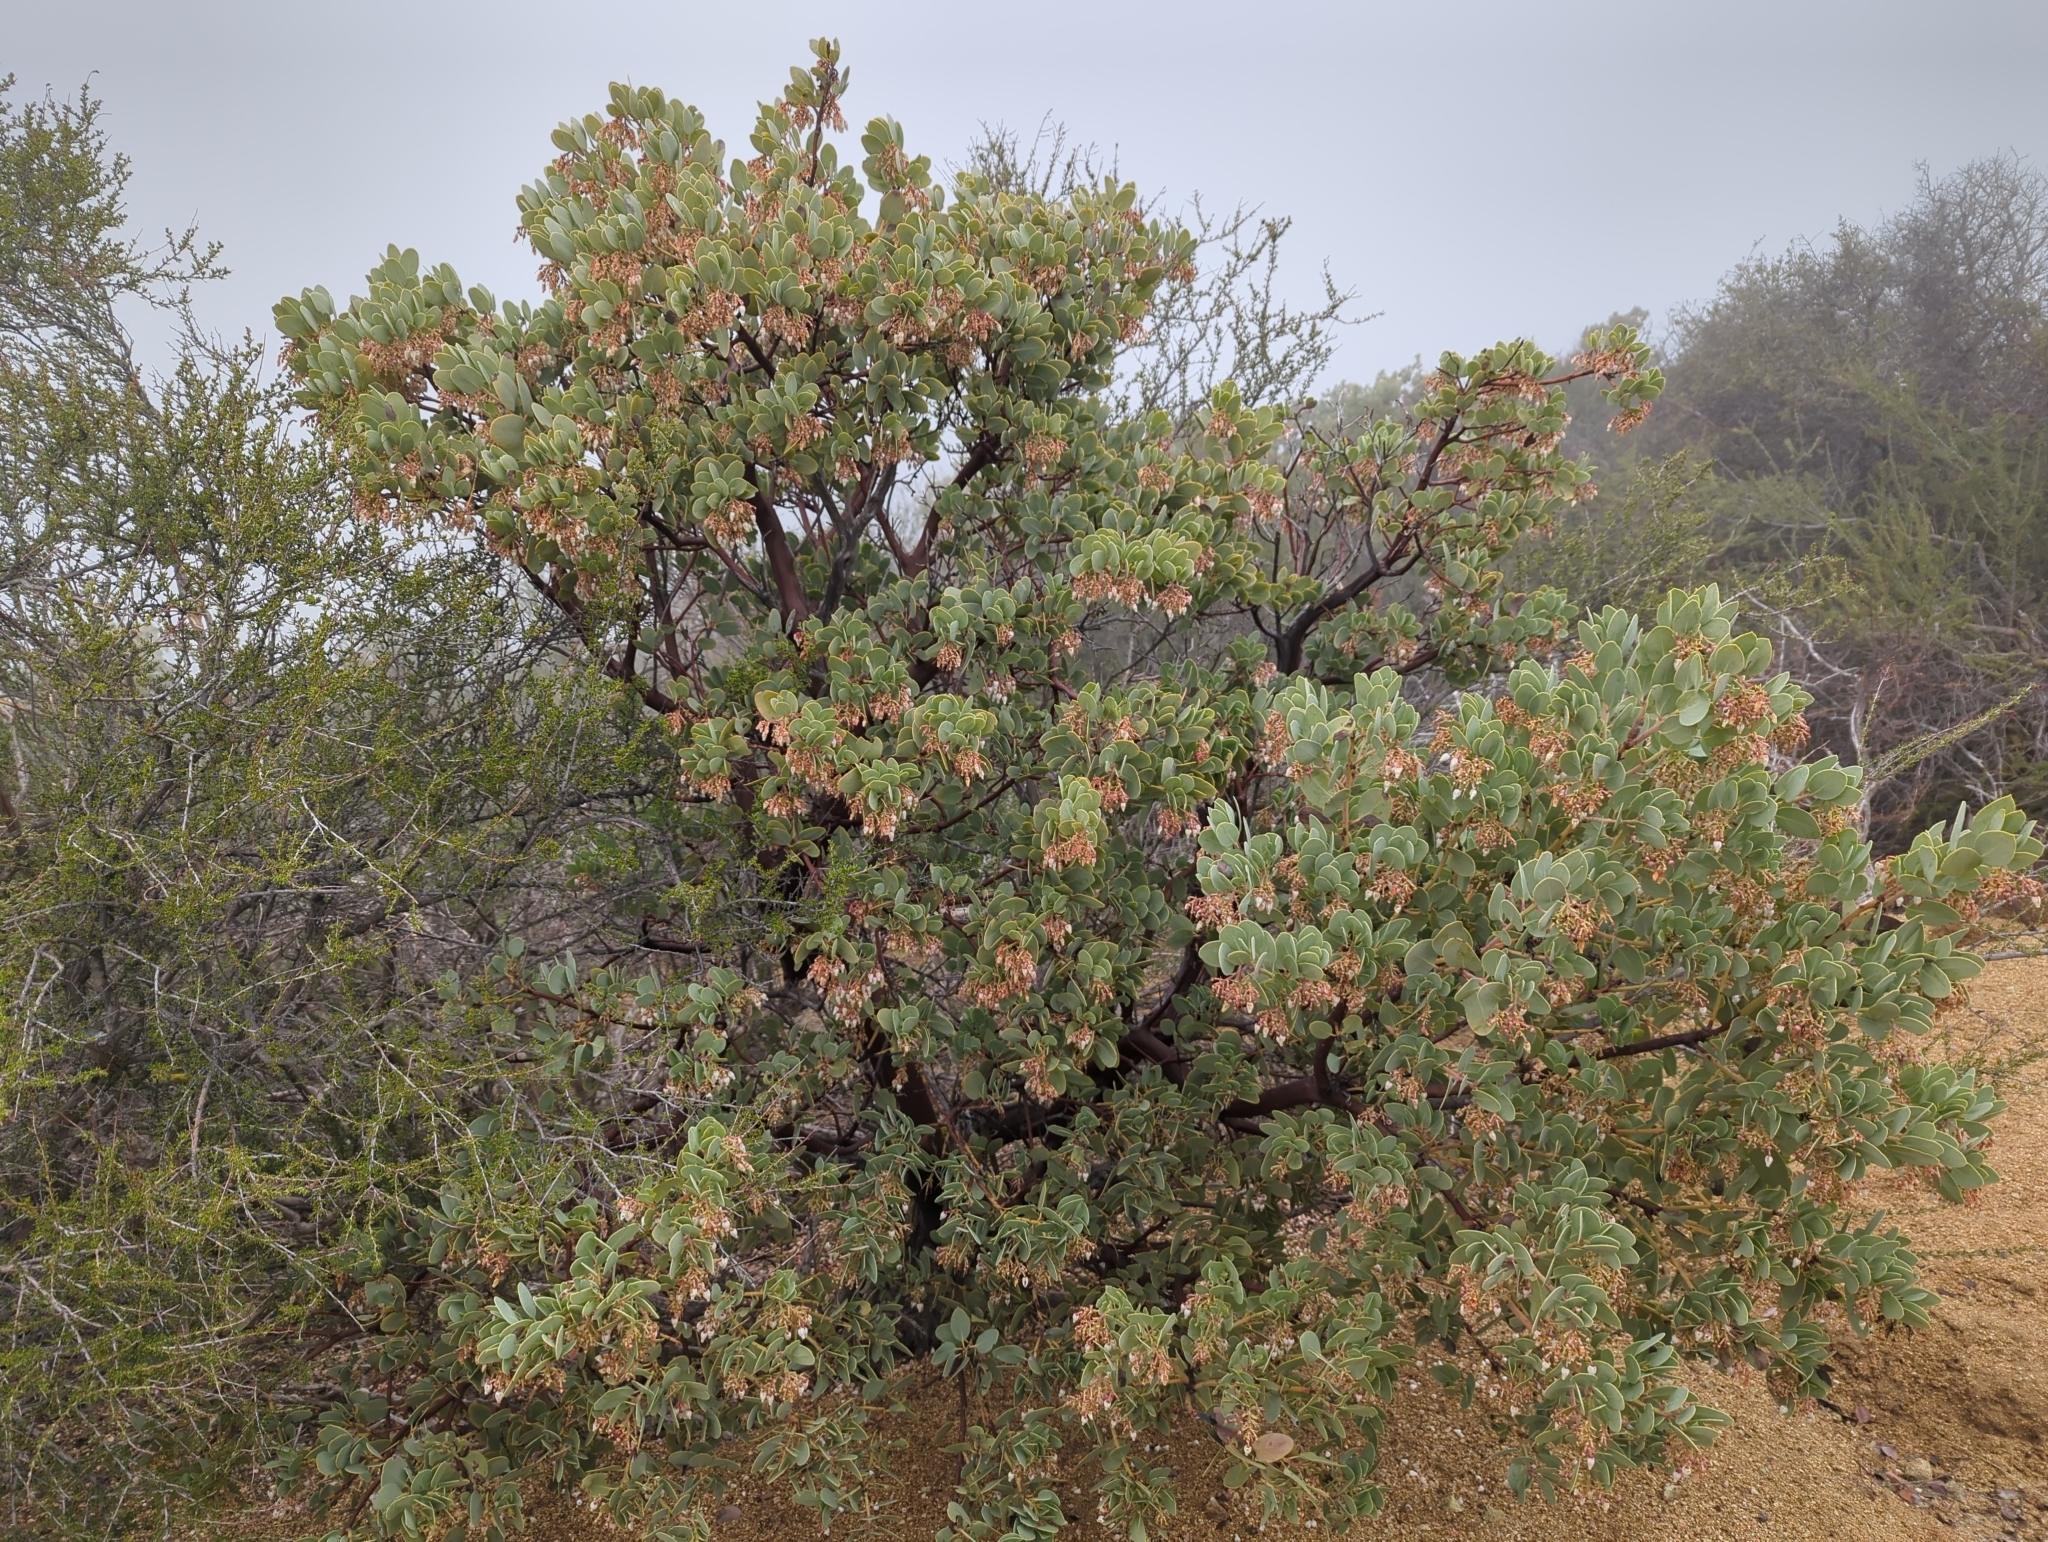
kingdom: Plantae
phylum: Tracheophyta
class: Magnoliopsida
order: Ericales
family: Ericaceae
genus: Arctostaphylos
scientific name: Arctostaphylos glauca
